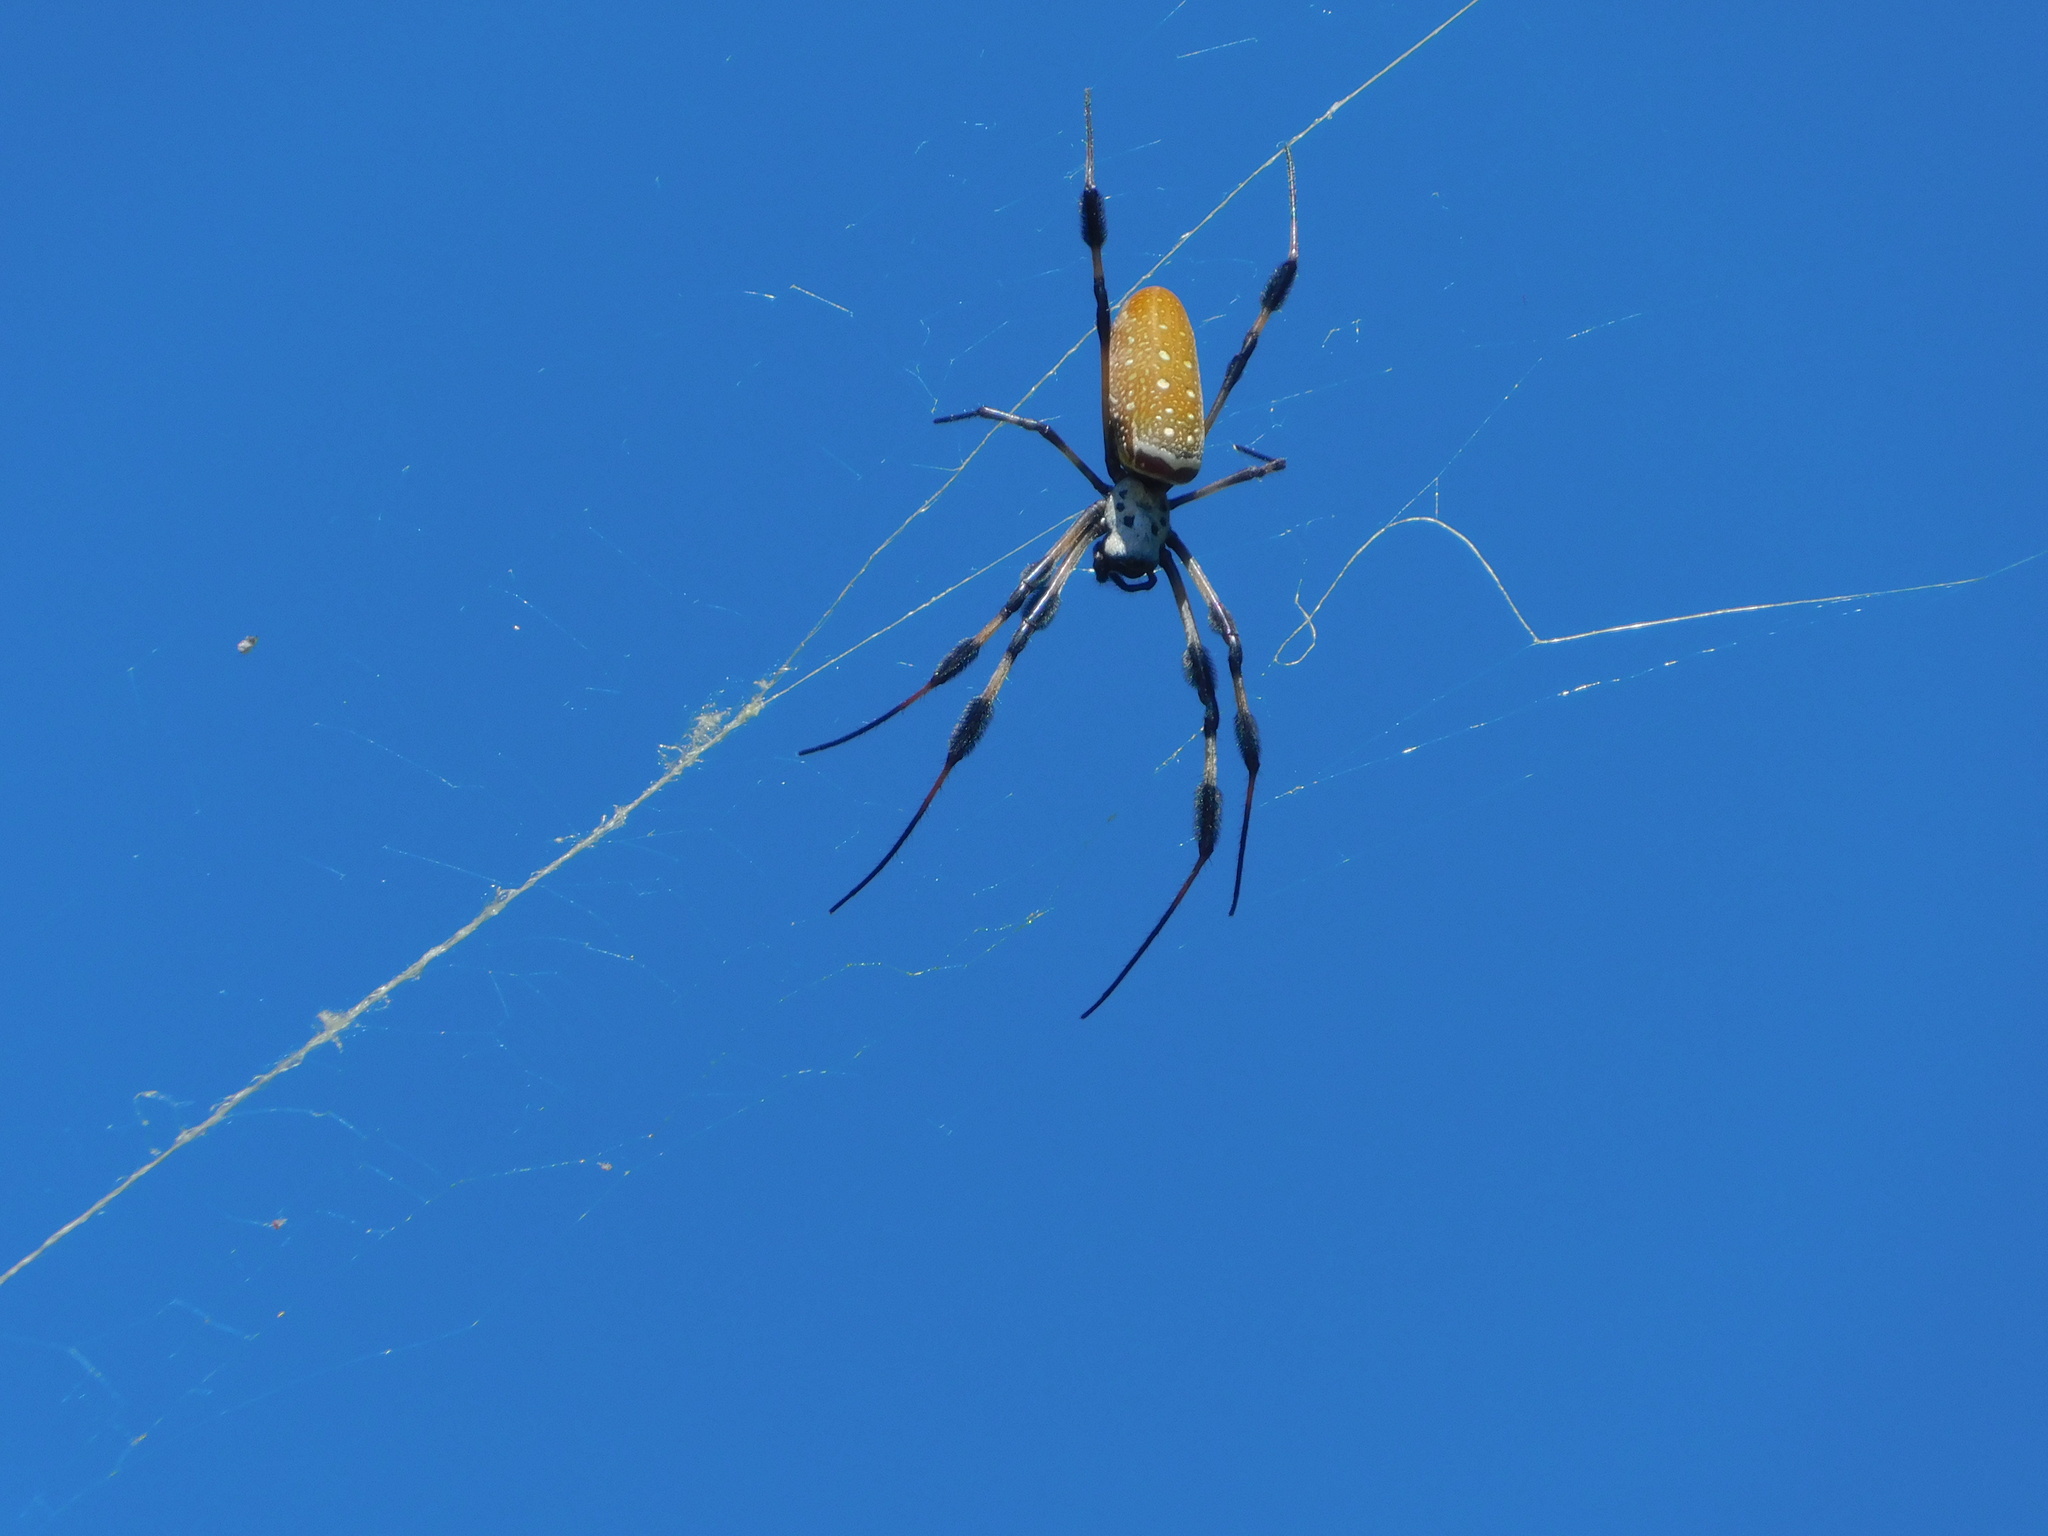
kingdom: Animalia
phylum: Arthropoda
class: Arachnida
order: Araneae
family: Araneidae
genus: Trichonephila
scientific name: Trichonephila clavipes
